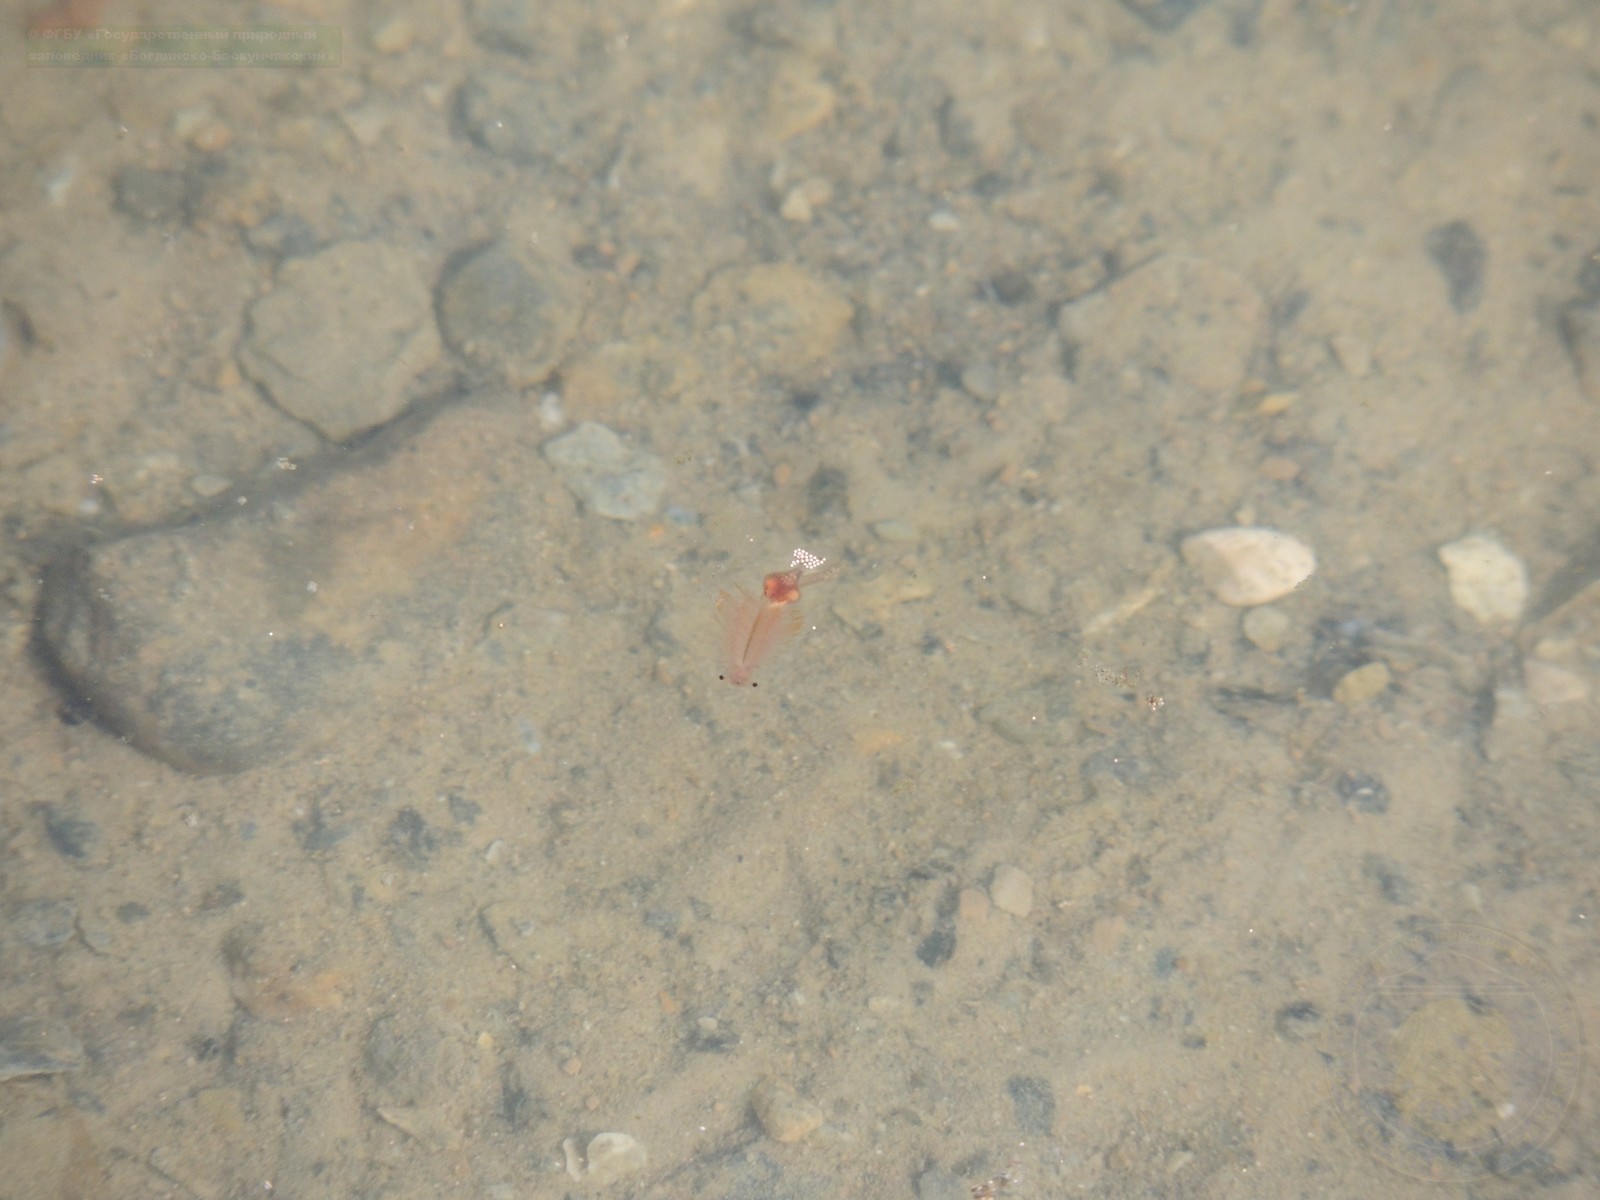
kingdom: Animalia
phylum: Arthropoda
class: Branchiopoda
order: Anostraca
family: Artemiidae
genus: Artemia
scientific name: Artemia salina
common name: Brine shrimp
